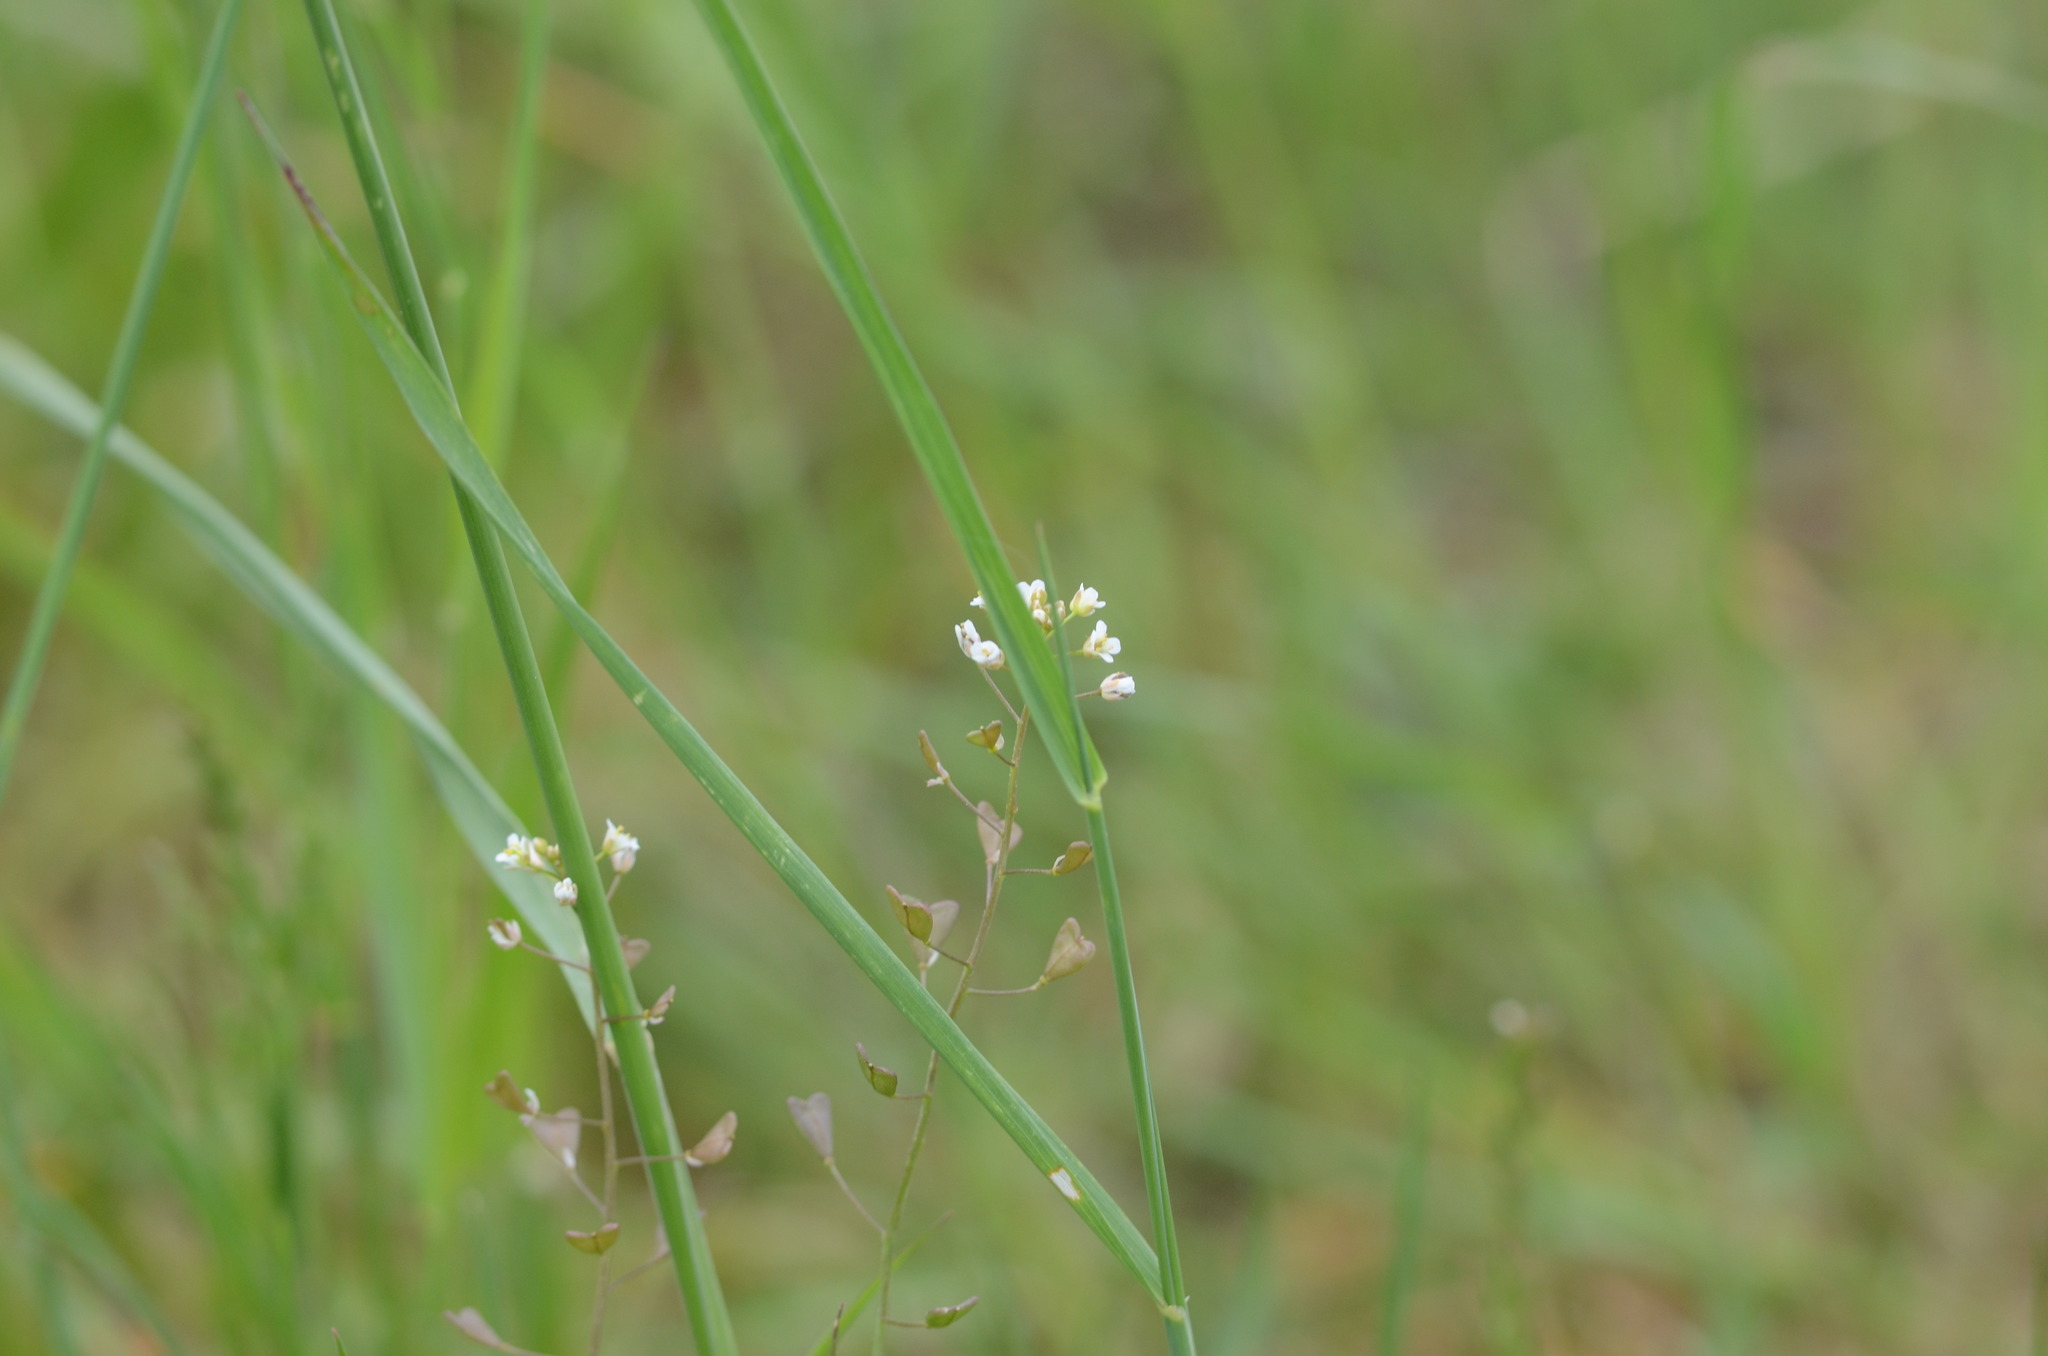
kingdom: Plantae
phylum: Tracheophyta
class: Magnoliopsida
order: Brassicales
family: Brassicaceae
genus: Capsella
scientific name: Capsella bursa-pastoris
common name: Shepherd's purse
